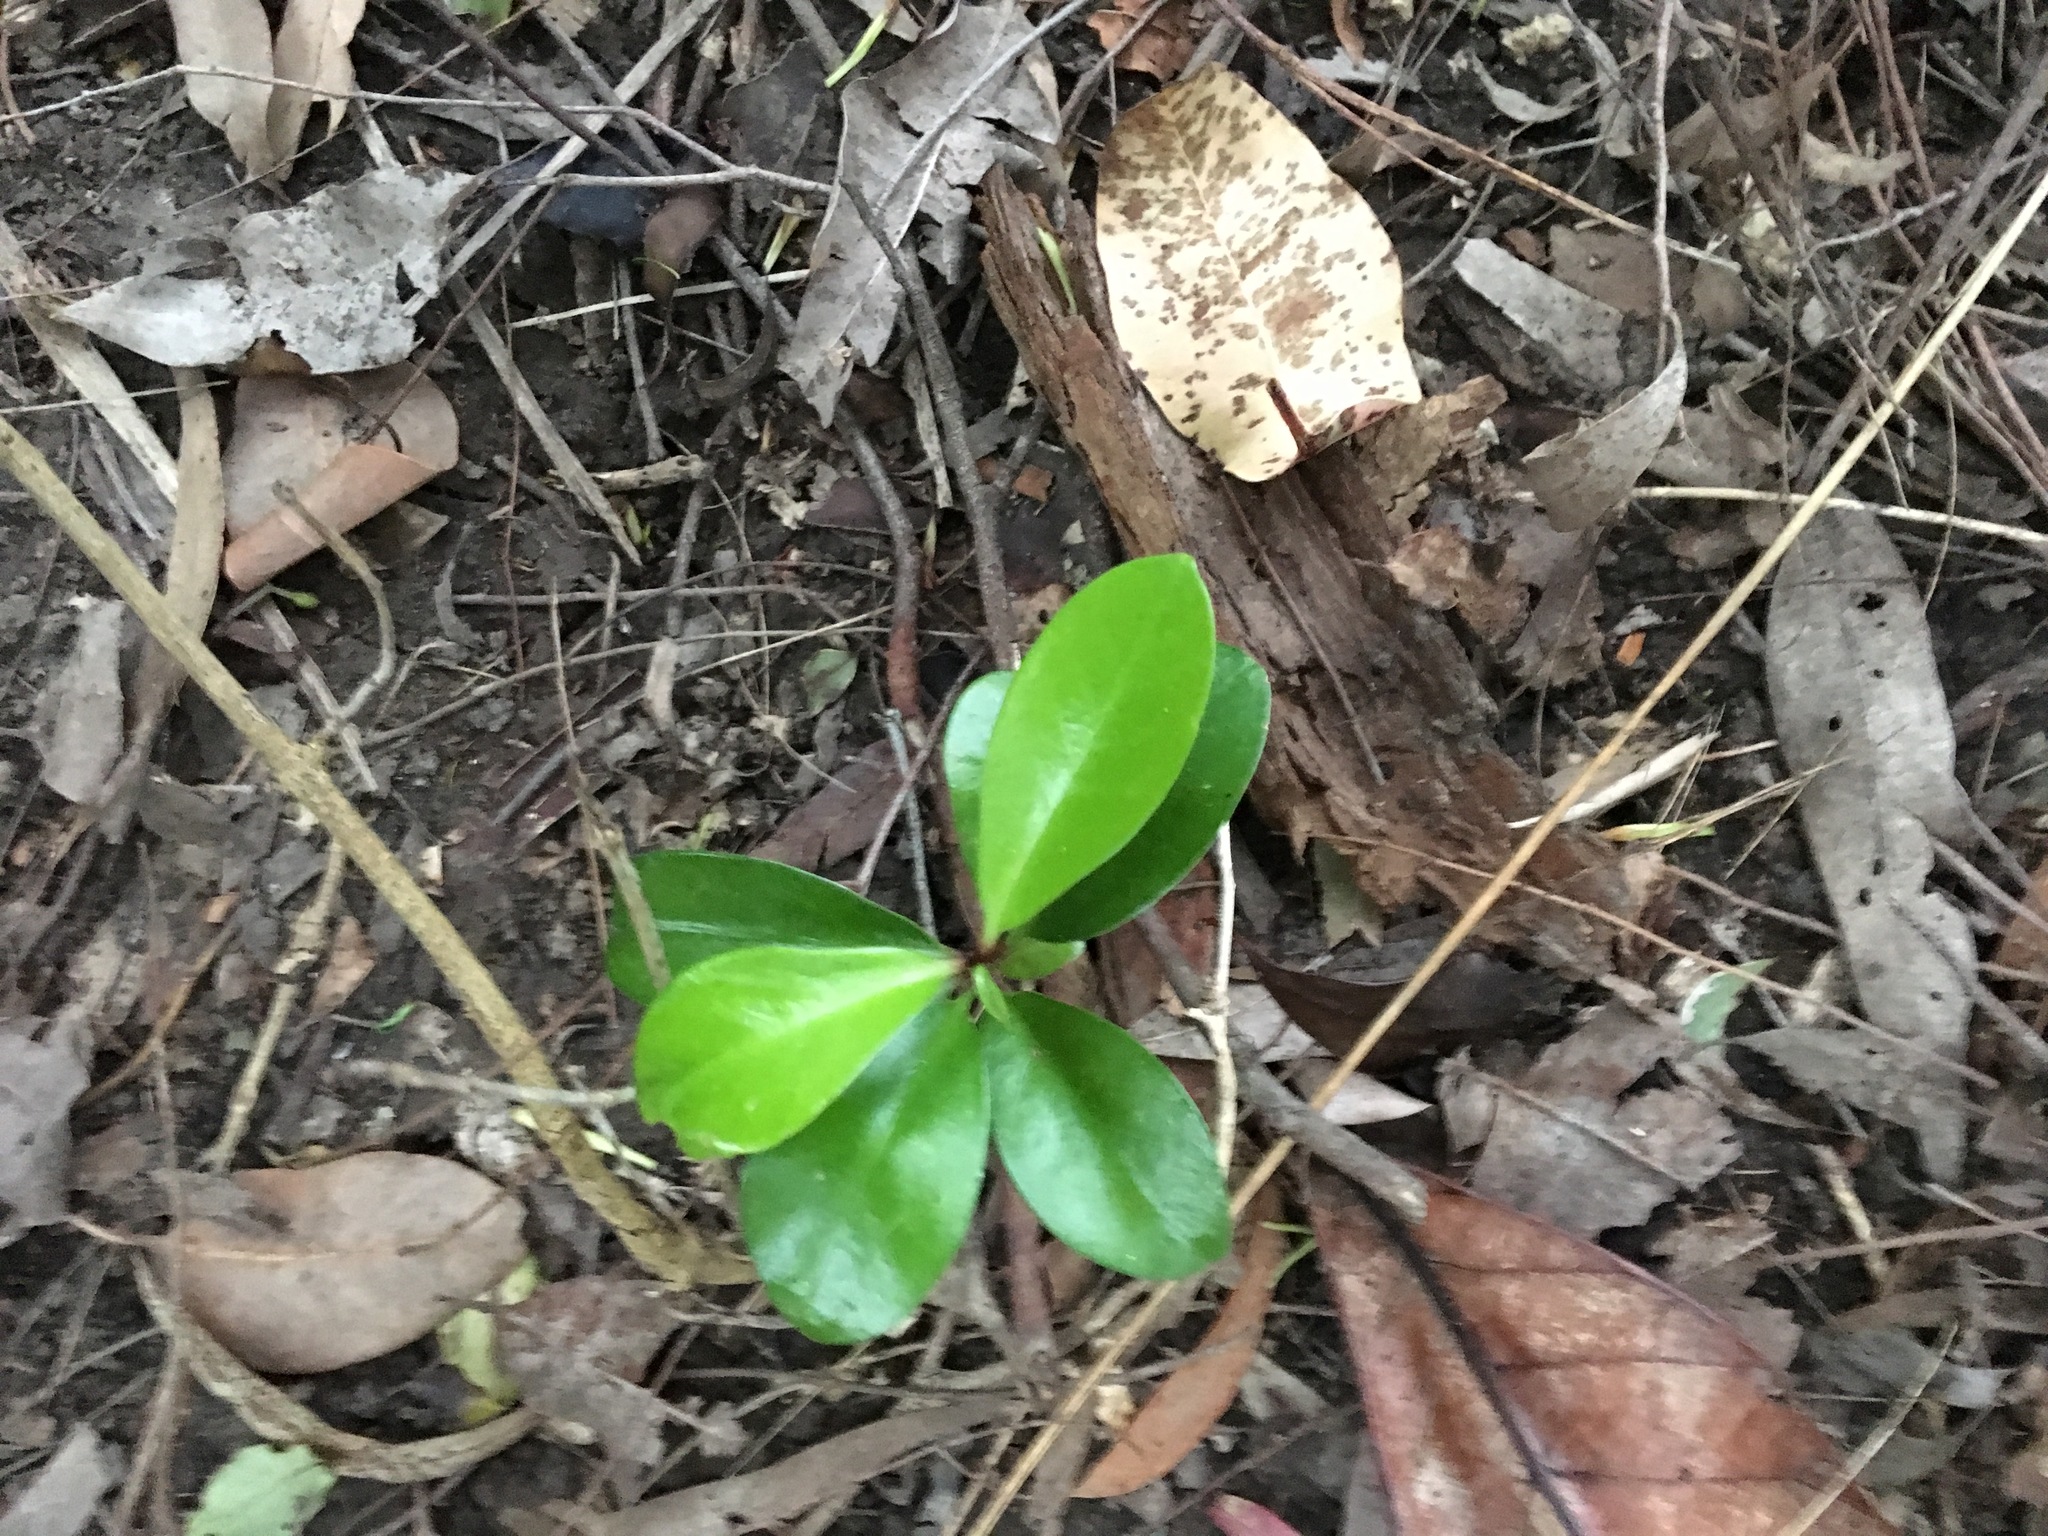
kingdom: Plantae
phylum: Tracheophyta
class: Magnoliopsida
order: Cucurbitales
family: Corynocarpaceae
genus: Corynocarpus
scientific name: Corynocarpus laevigatus
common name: New zealand laurel
